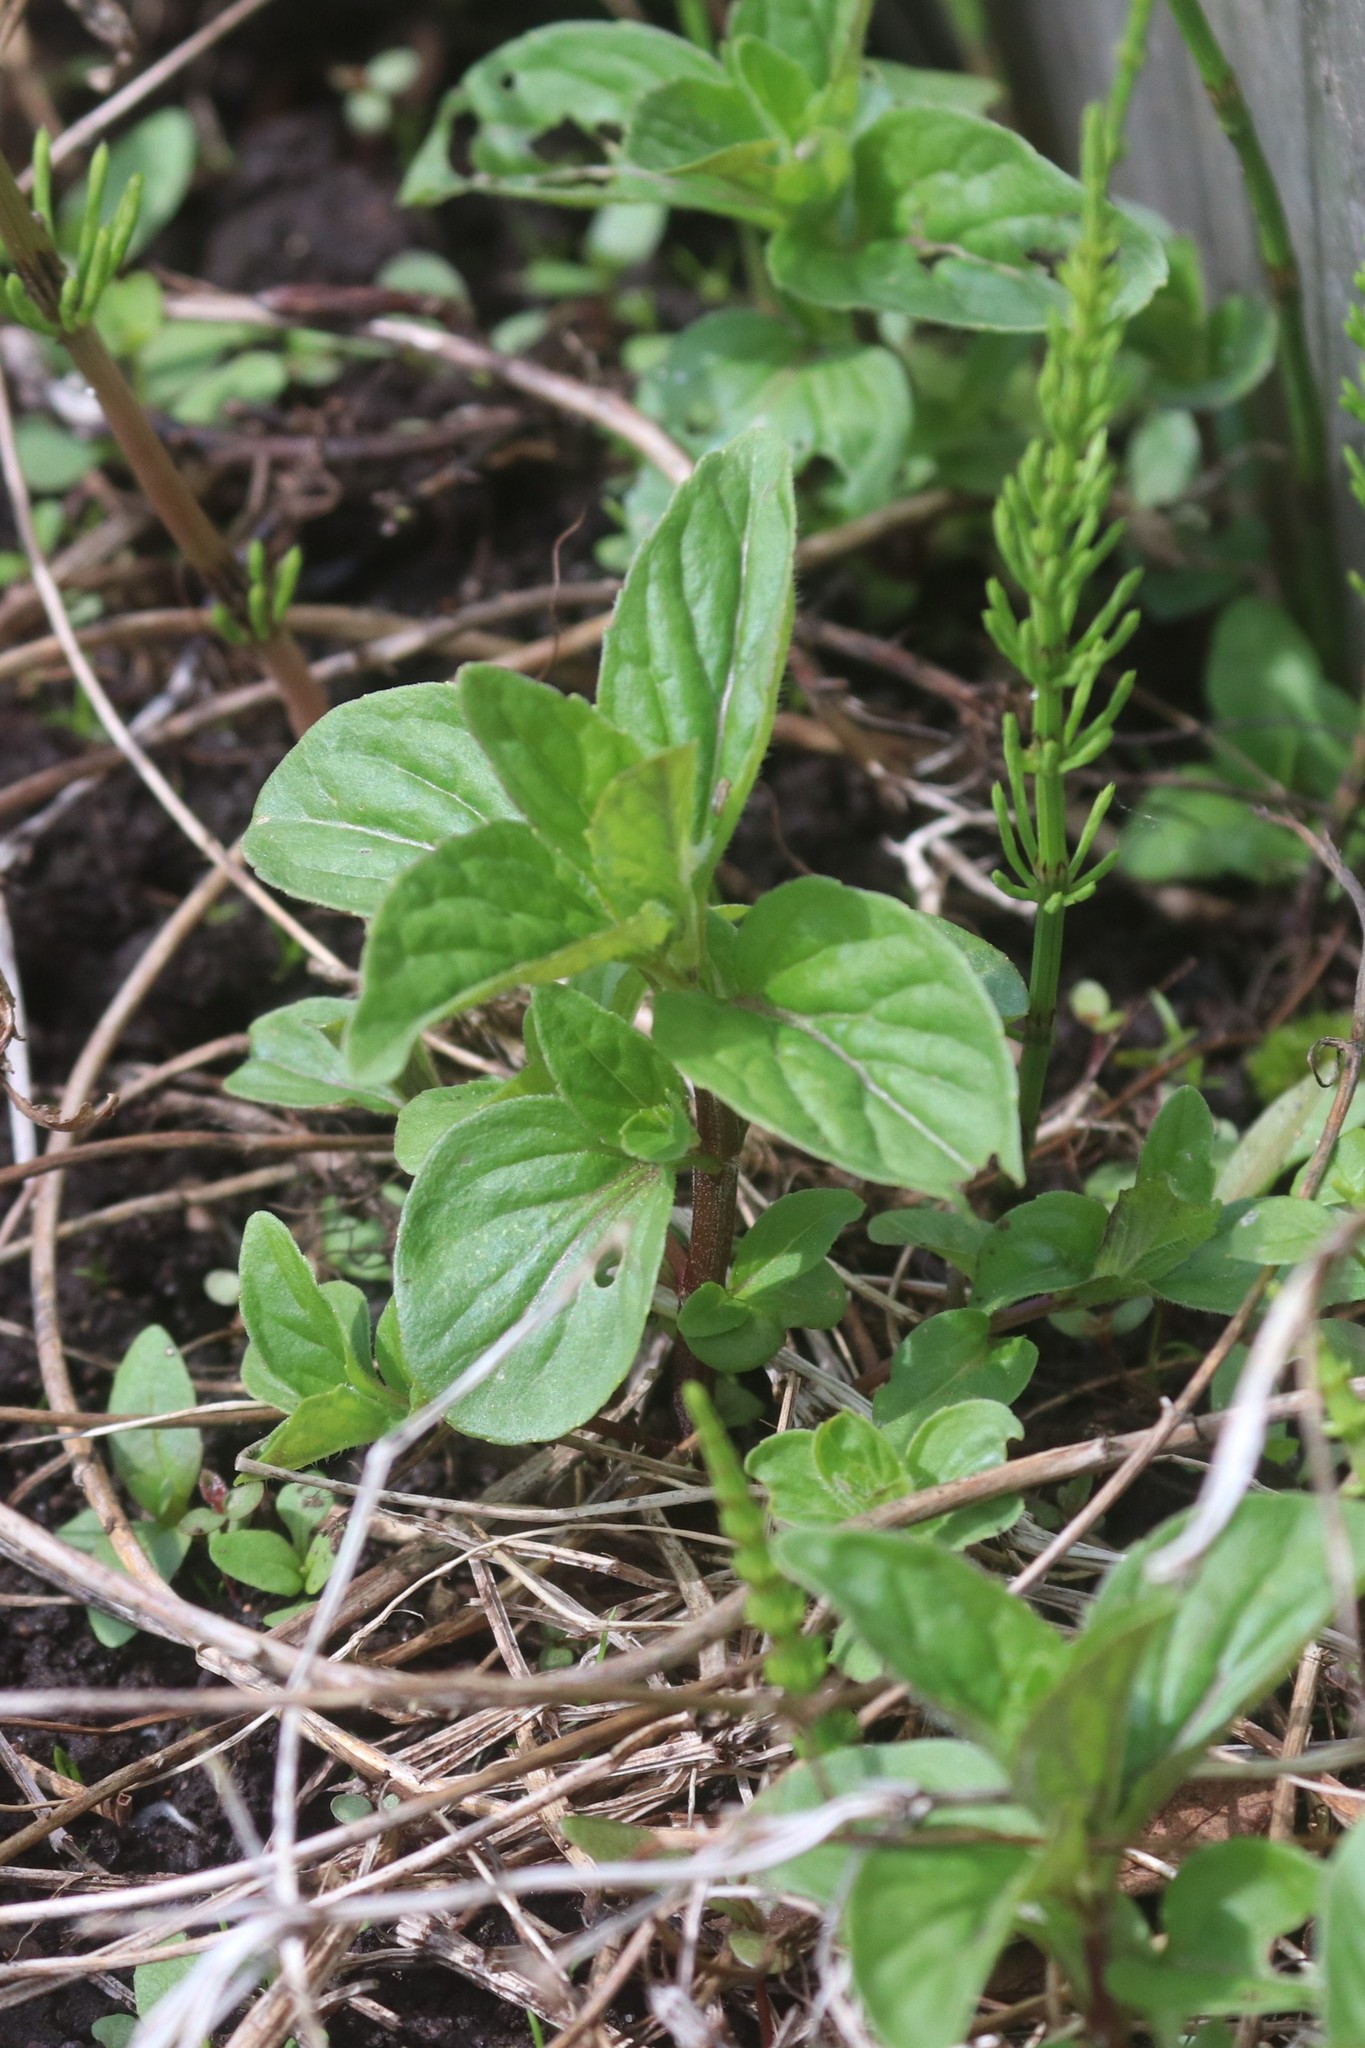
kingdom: Plantae
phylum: Tracheophyta
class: Magnoliopsida
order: Lamiales
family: Lamiaceae
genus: Mentha
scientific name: Mentha arvensis
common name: Corn mint
